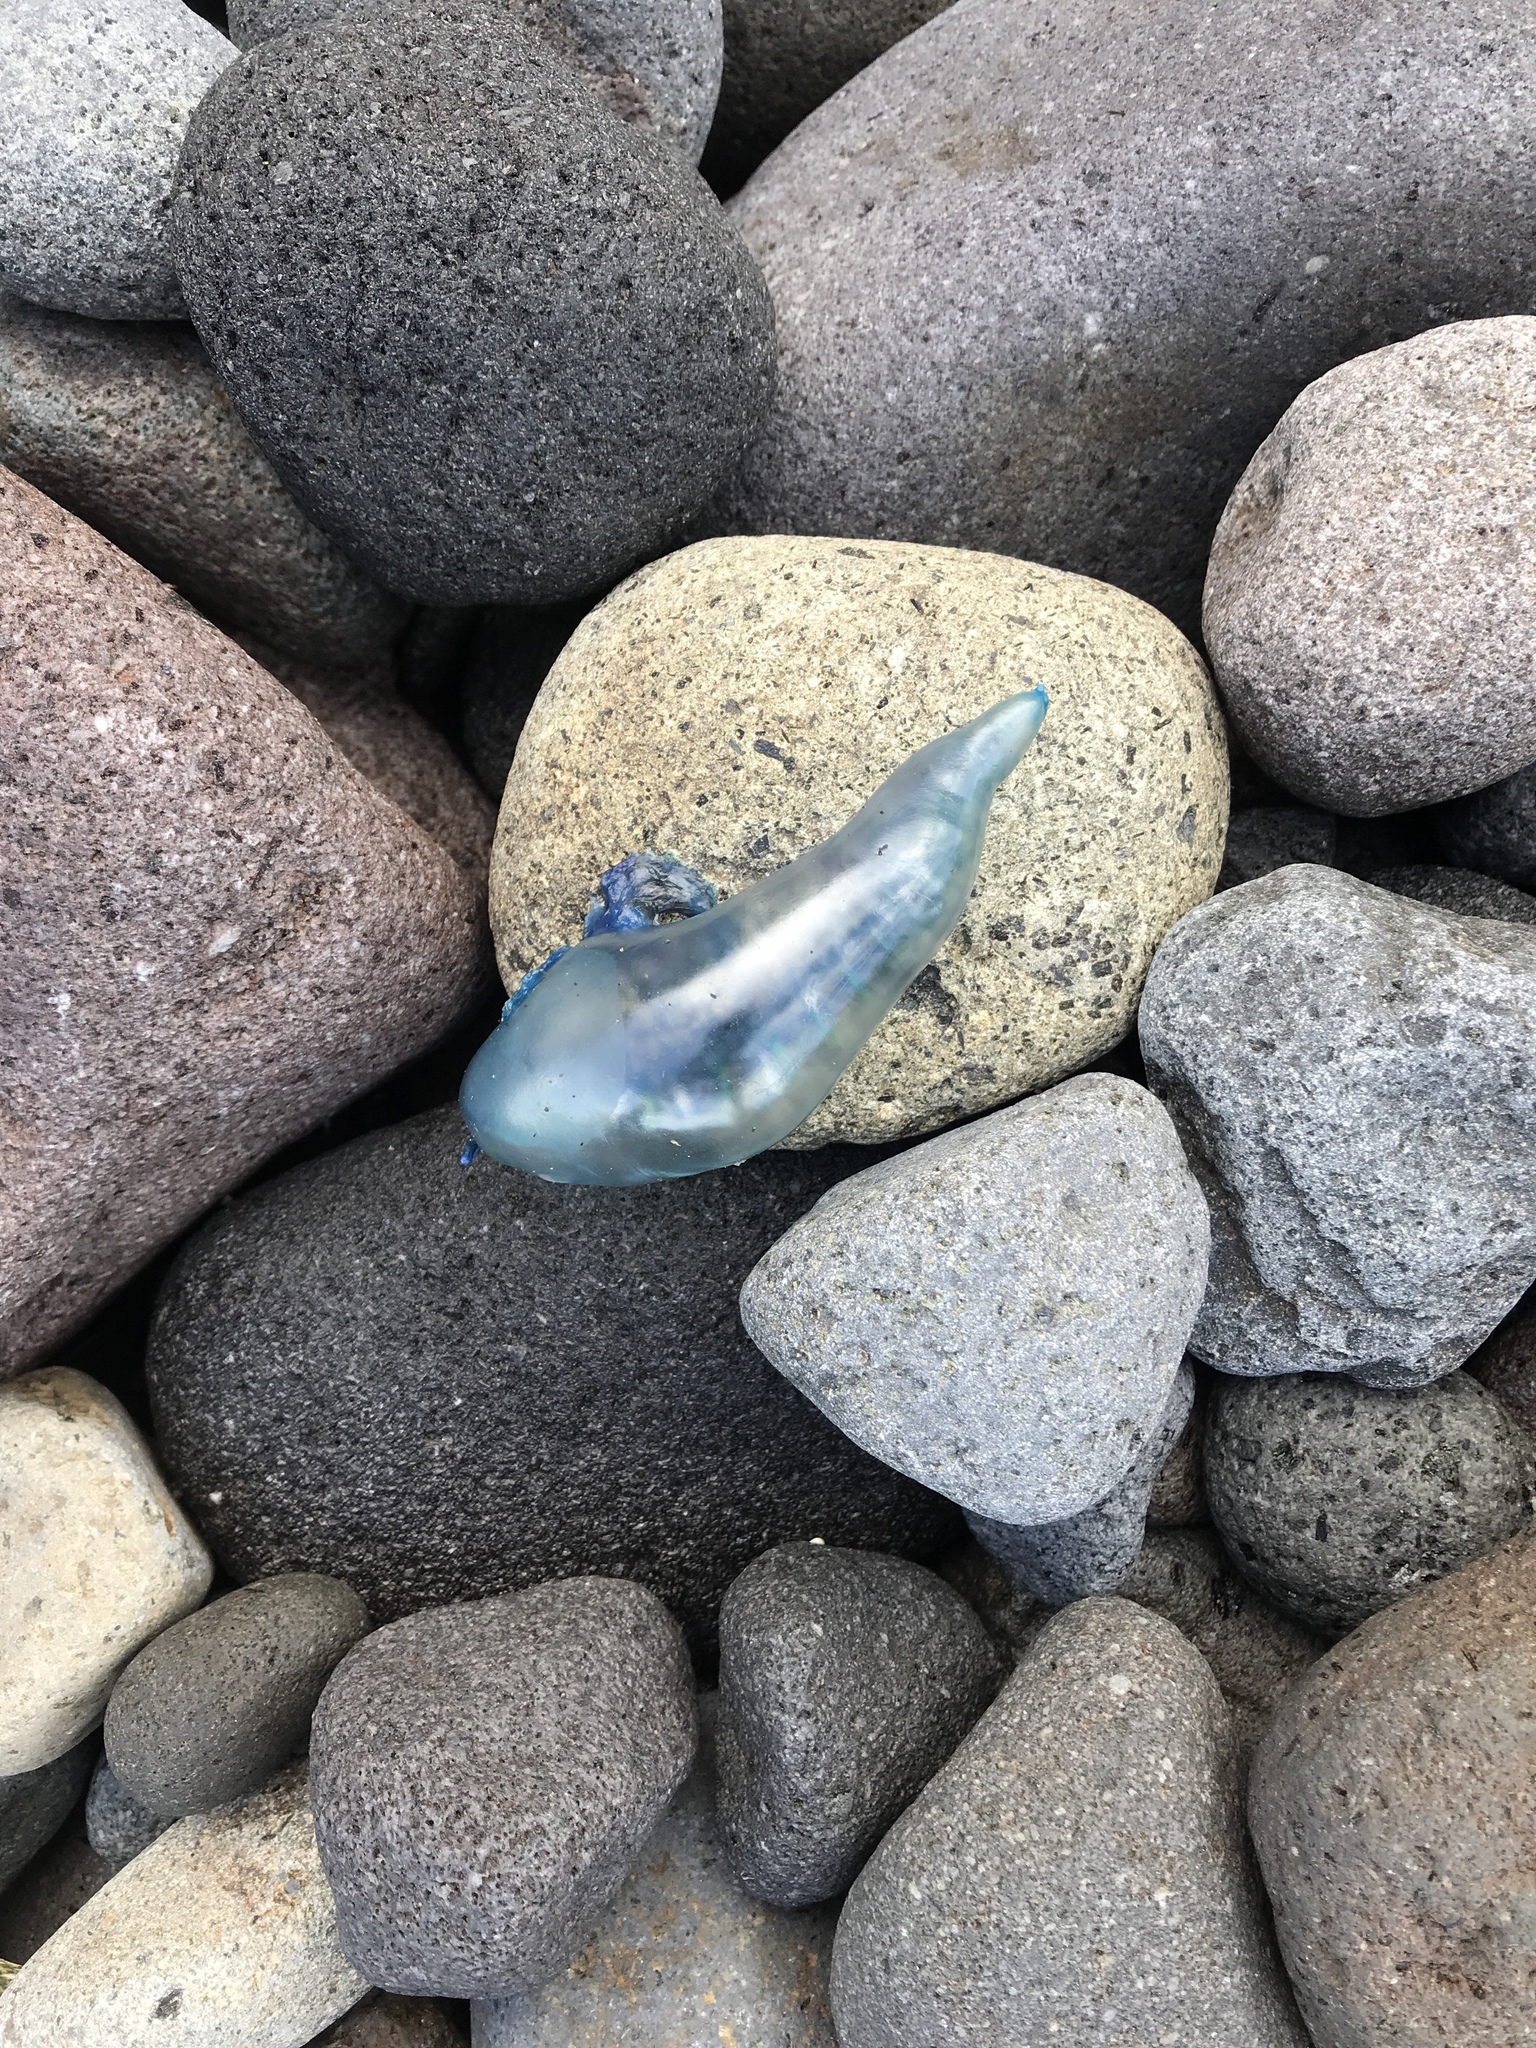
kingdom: Animalia
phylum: Cnidaria
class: Hydrozoa
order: Siphonophorae
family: Physaliidae
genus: Physalia
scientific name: Physalia physalis
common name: Portuguese man-of-war
